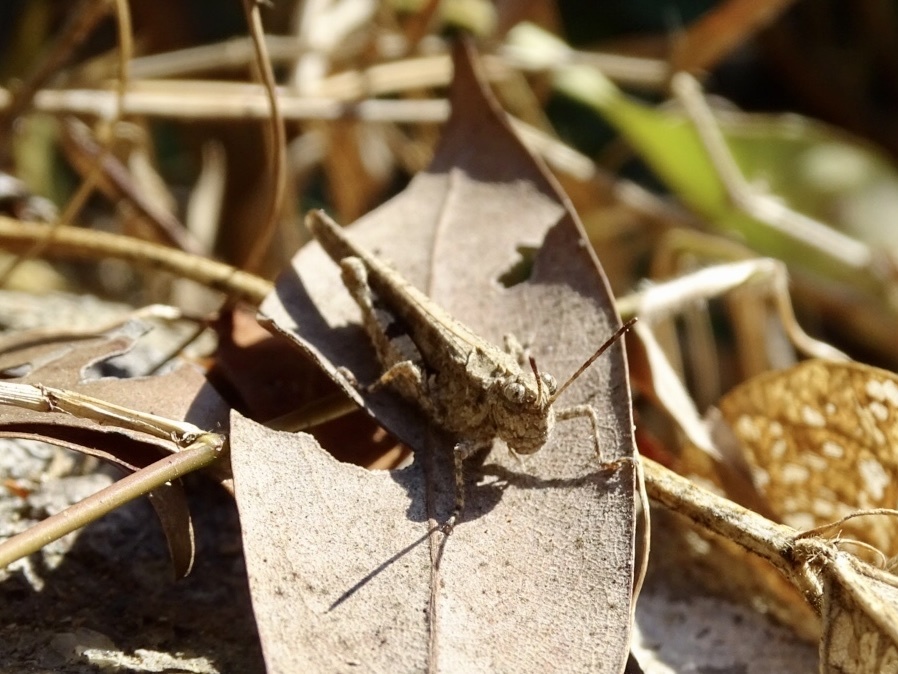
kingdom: Animalia
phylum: Arthropoda
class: Insecta
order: Orthoptera
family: Acrididae
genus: Trilophidia
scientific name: Trilophidia annulata
